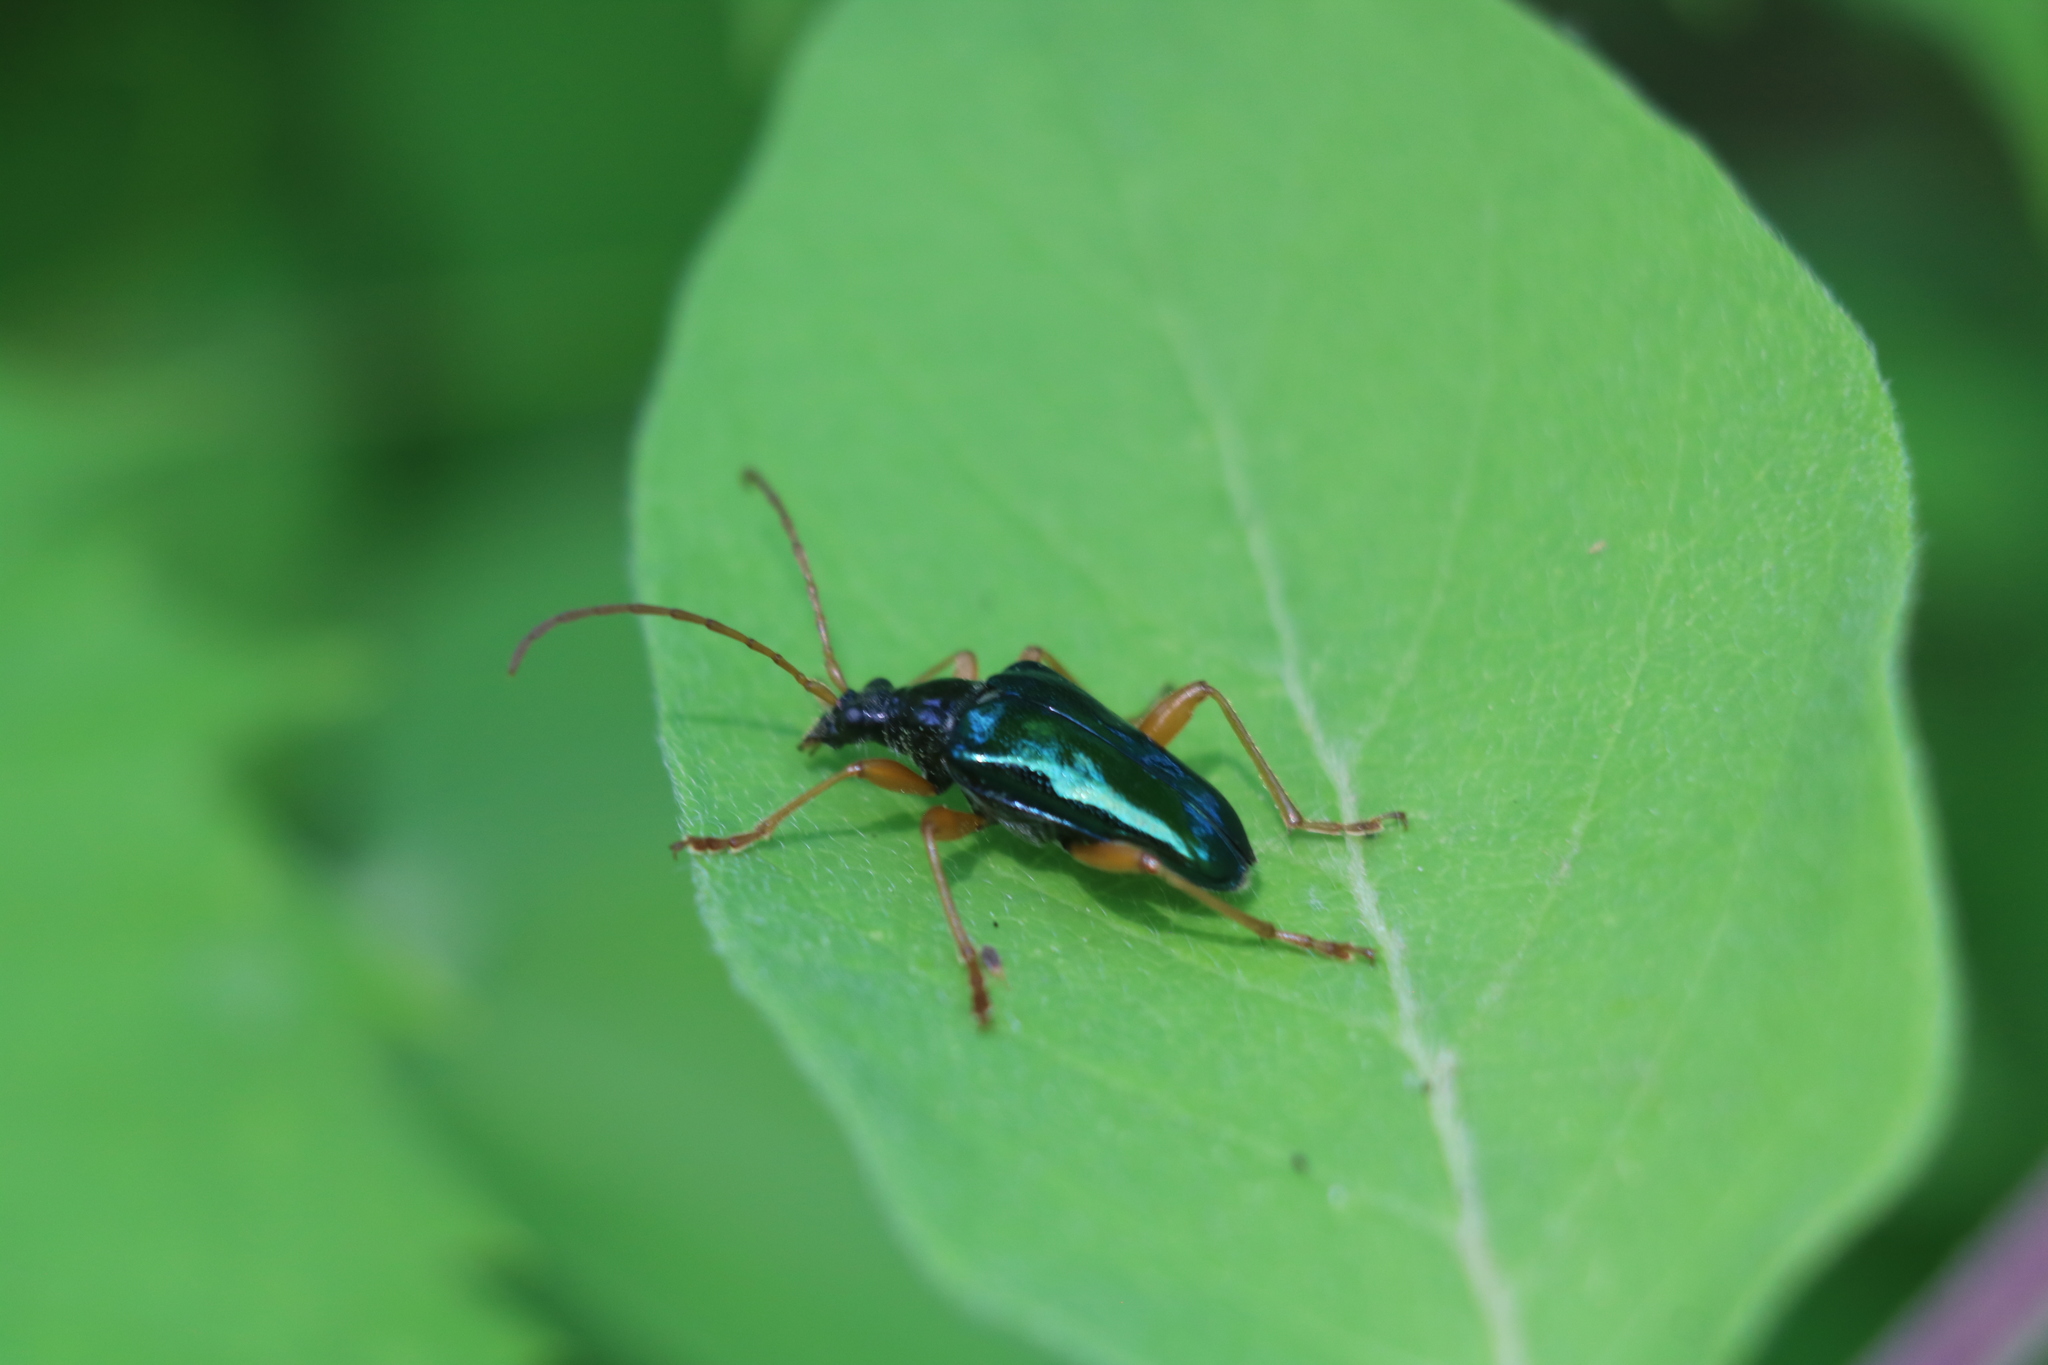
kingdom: Animalia
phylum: Arthropoda
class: Insecta
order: Coleoptera
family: Cerambycidae
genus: Gaurotes
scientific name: Gaurotes cyanipennis
